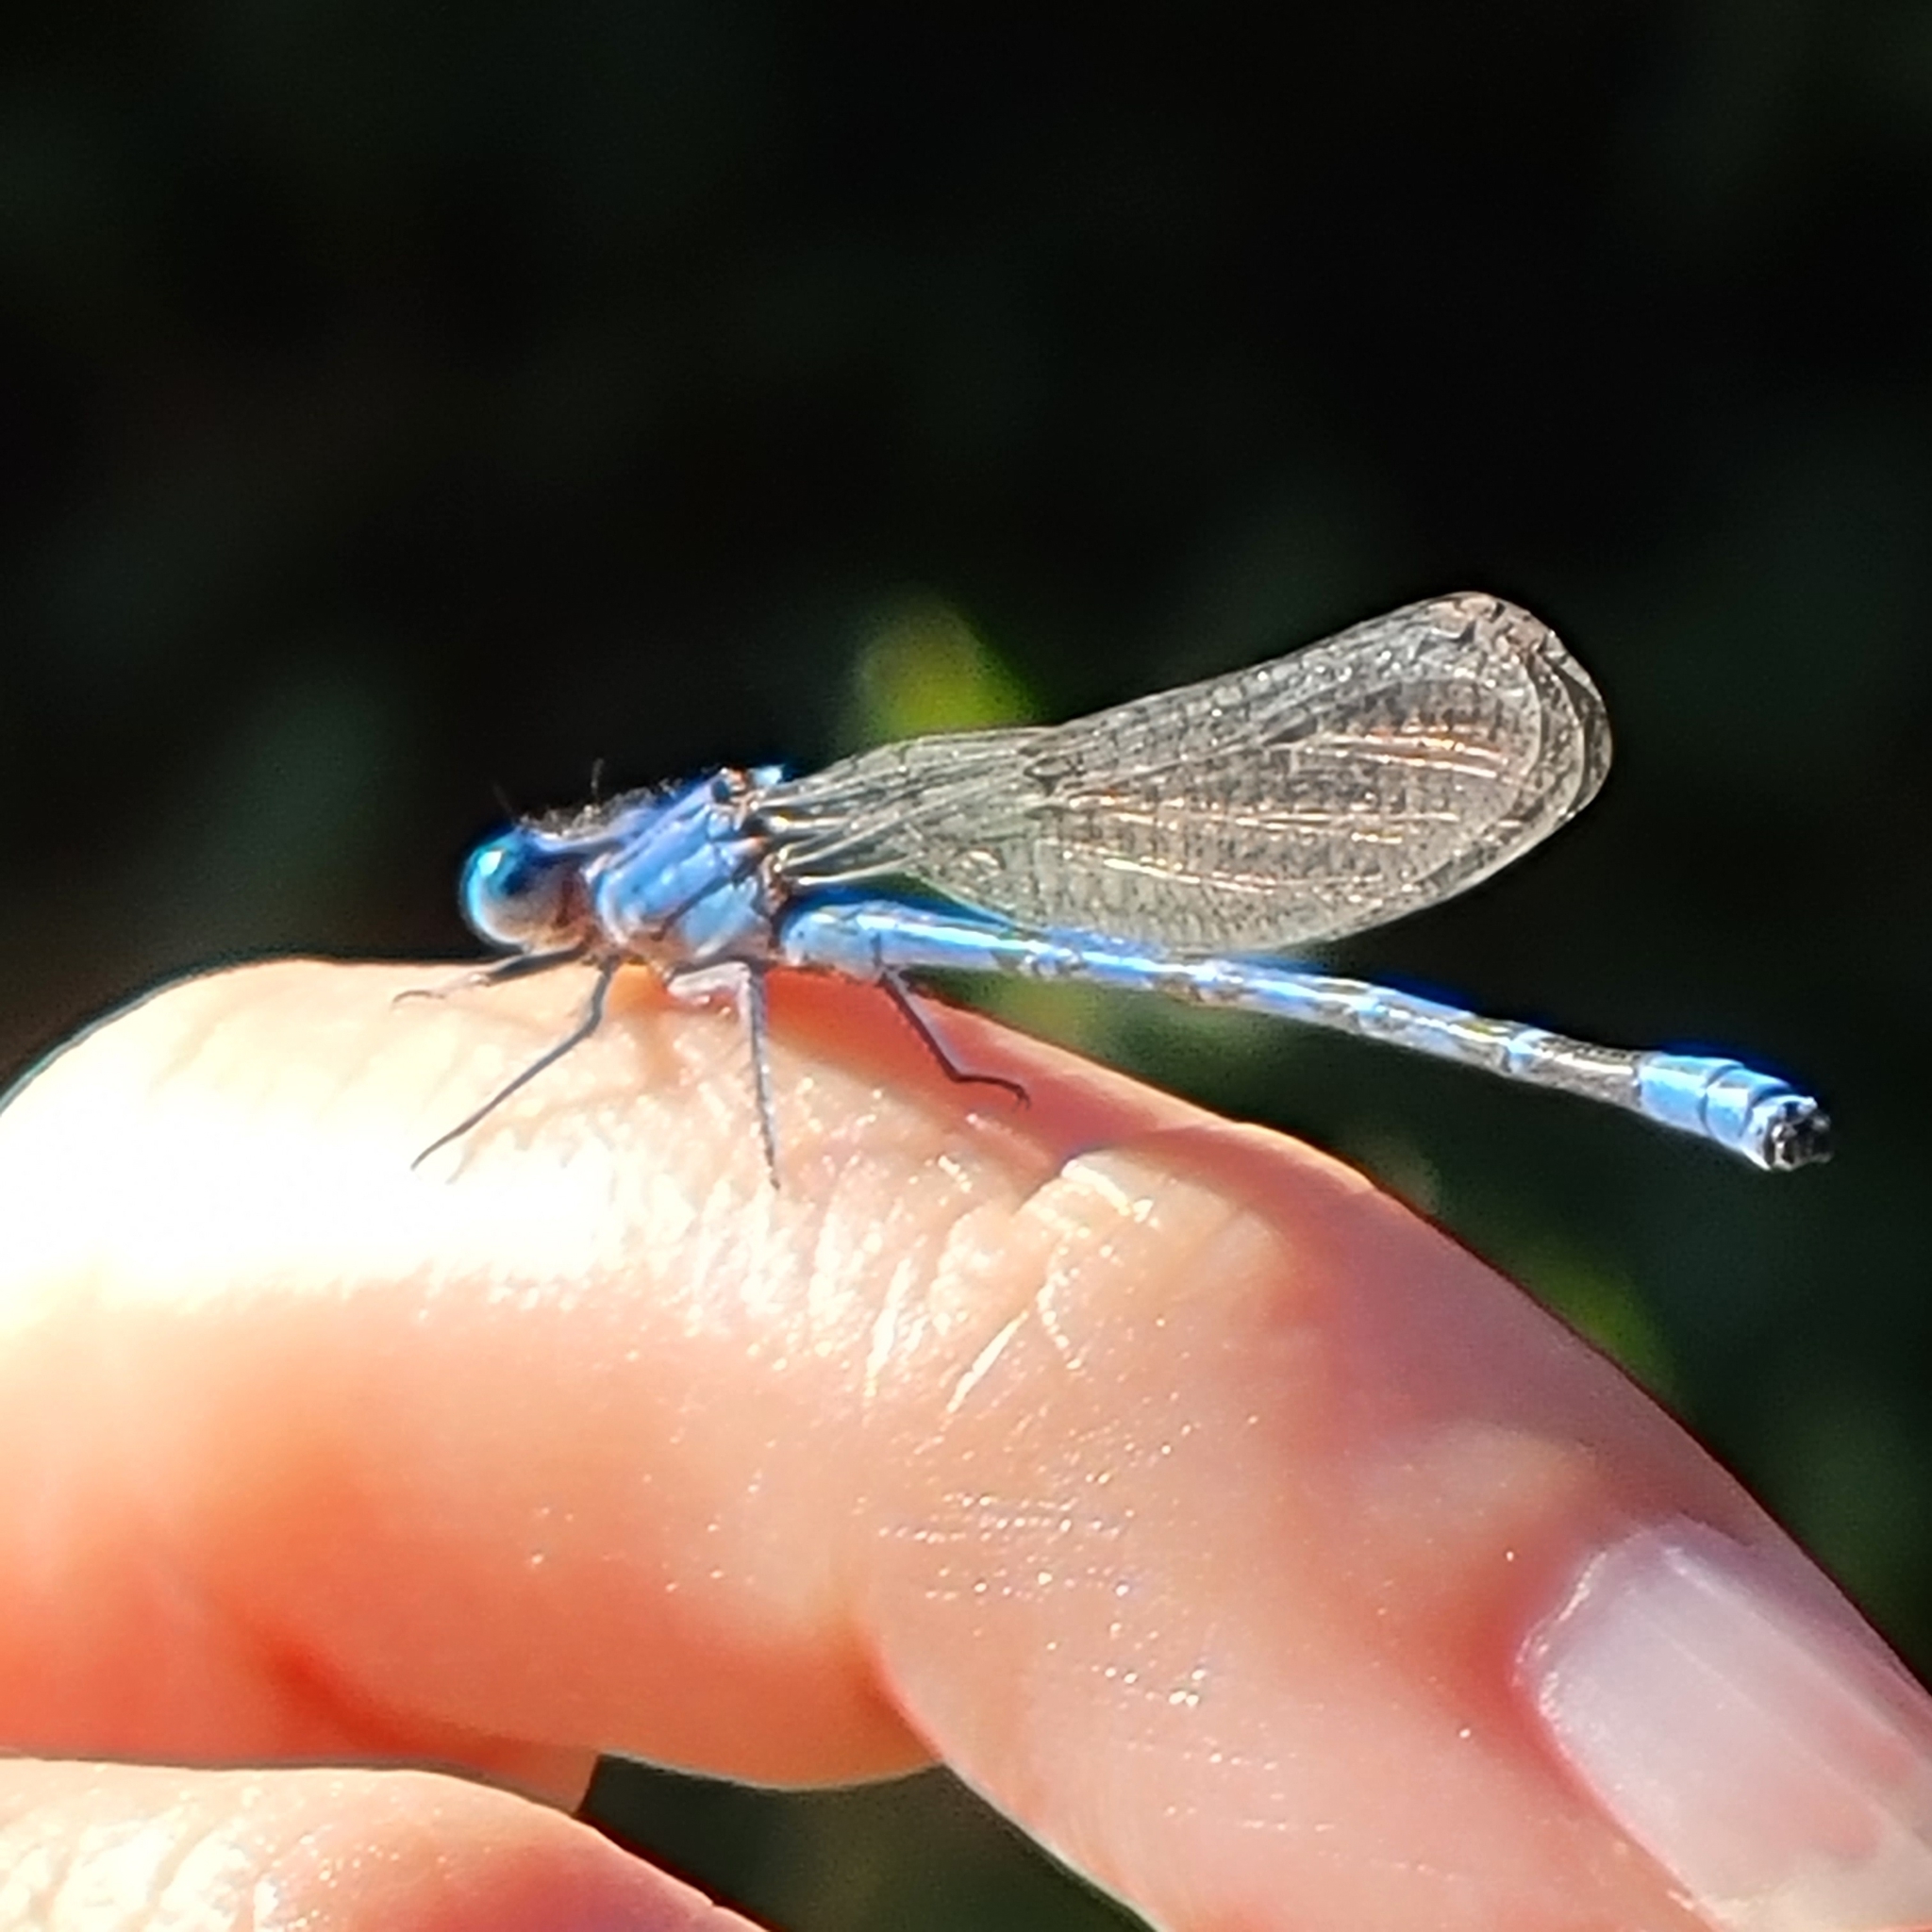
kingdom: Animalia
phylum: Arthropoda
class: Insecta
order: Odonata
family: Coenagrionidae
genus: Argia
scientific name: Argia vivida
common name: Vivid dancer
